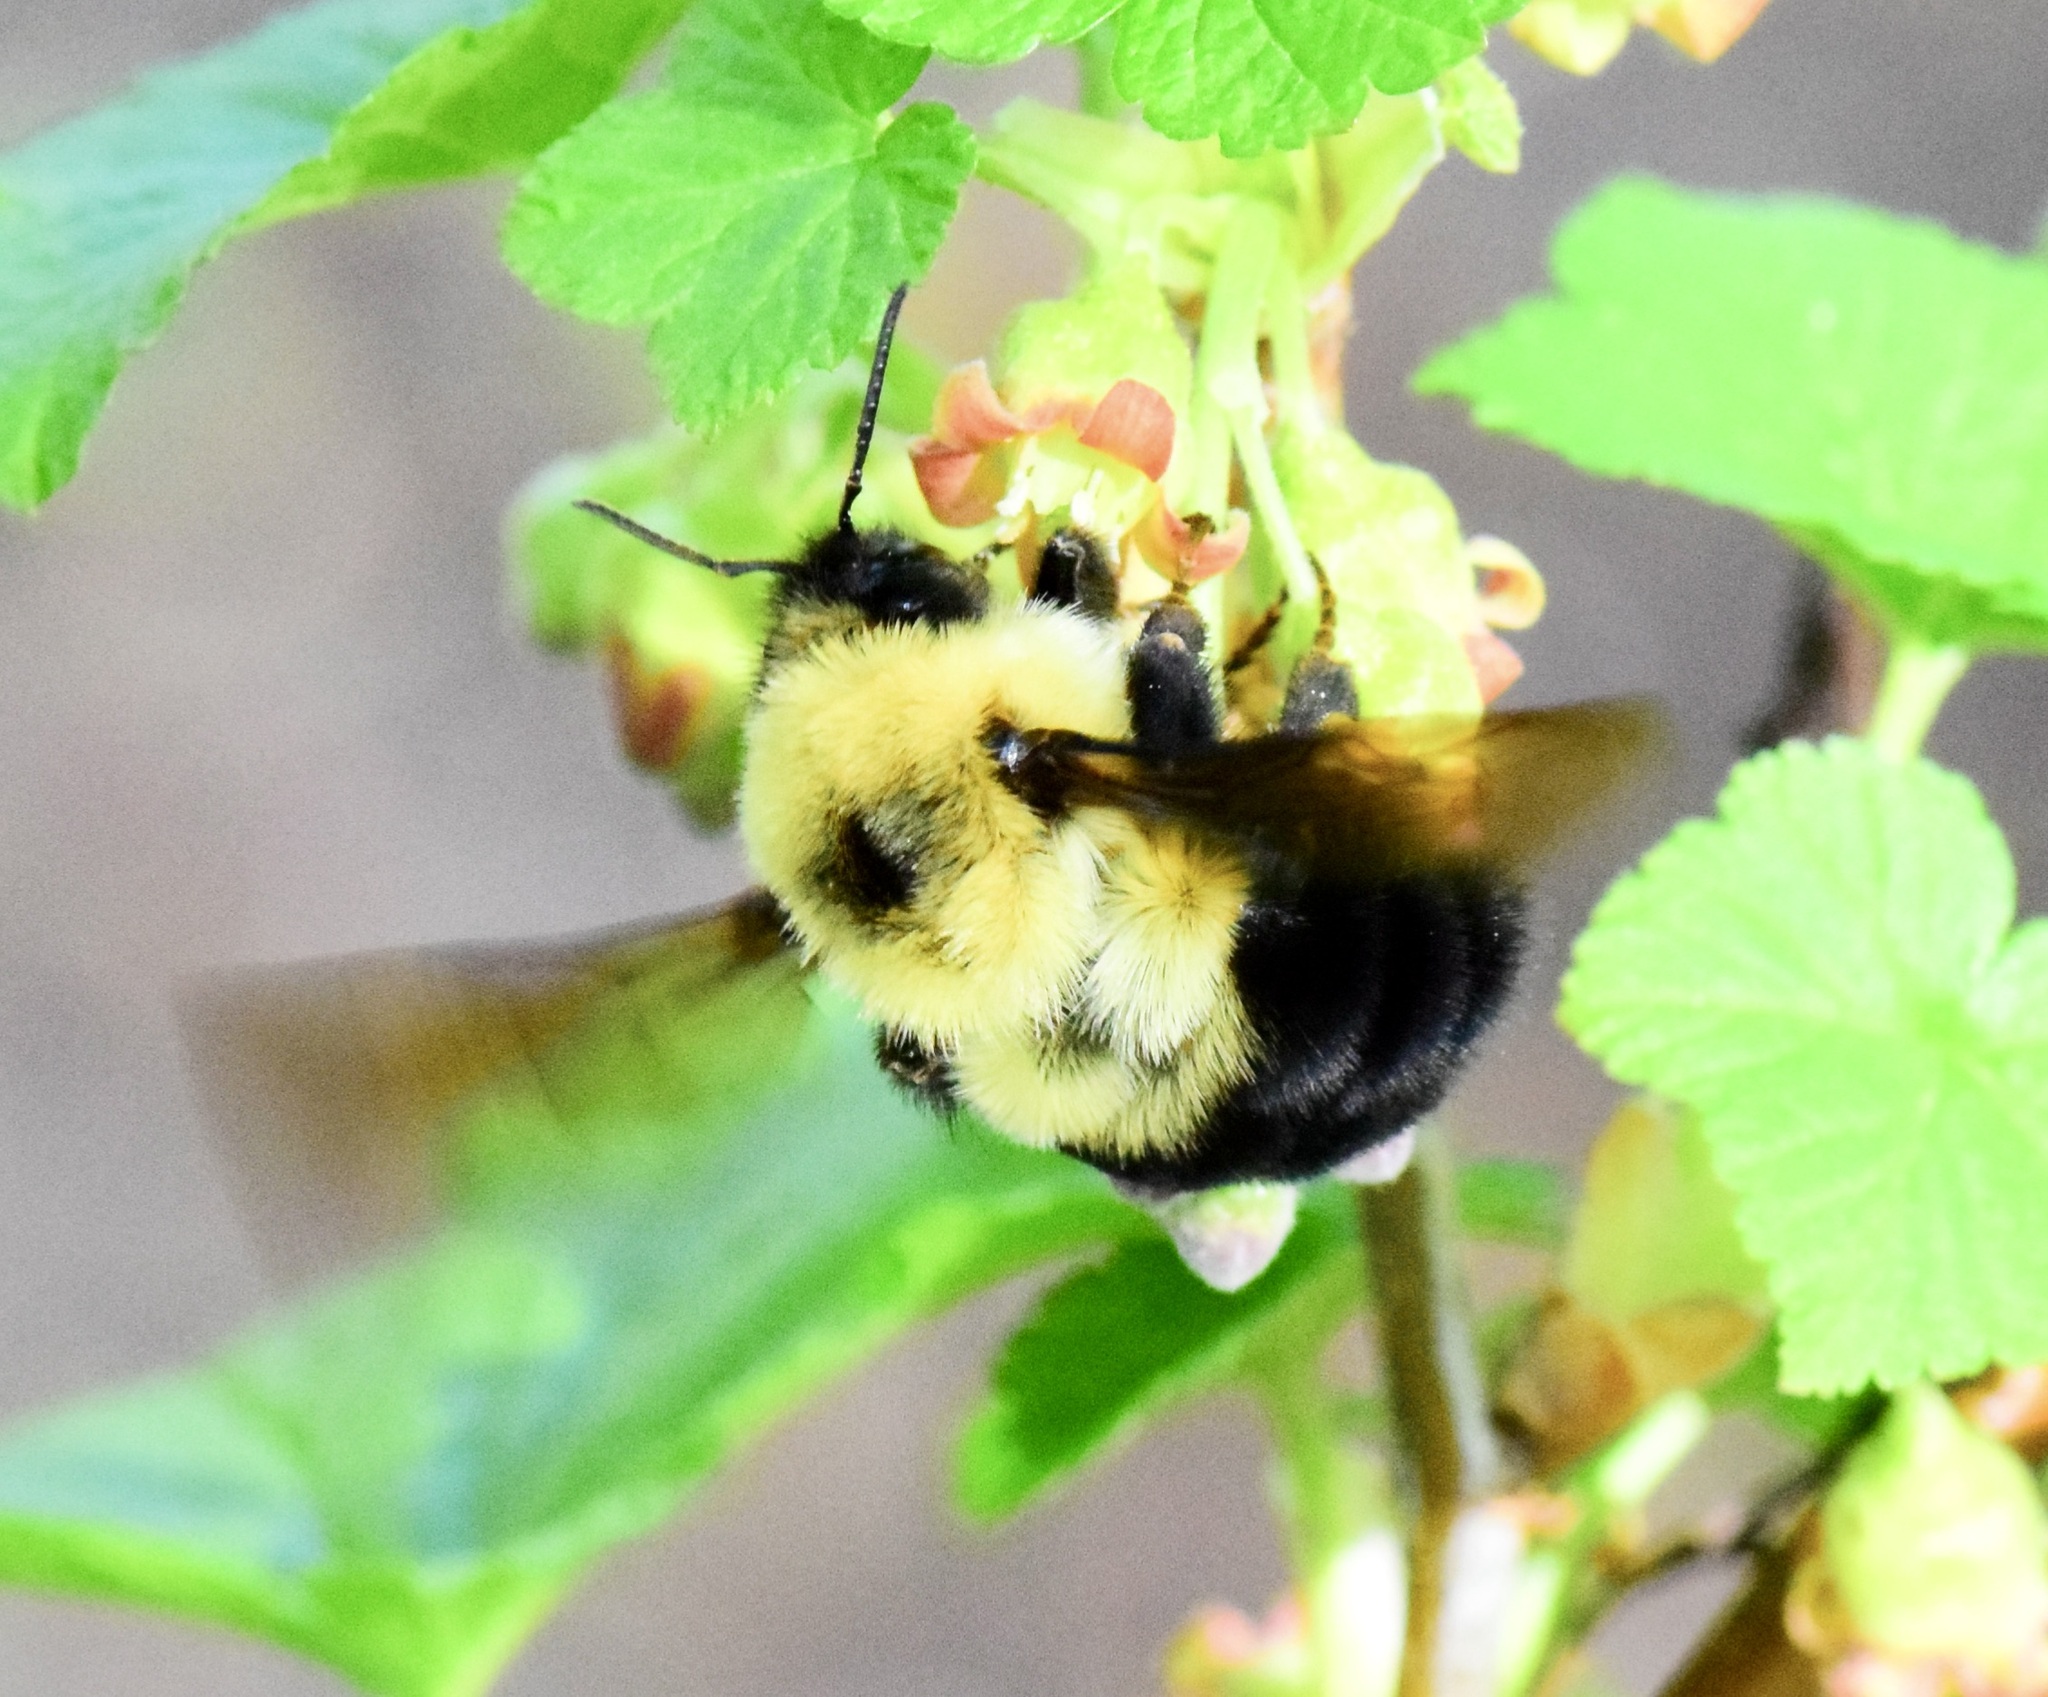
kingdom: Animalia
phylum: Arthropoda
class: Insecta
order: Hymenoptera
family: Apidae
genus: Bombus
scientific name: Bombus bimaculatus
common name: Two-spotted bumble bee
